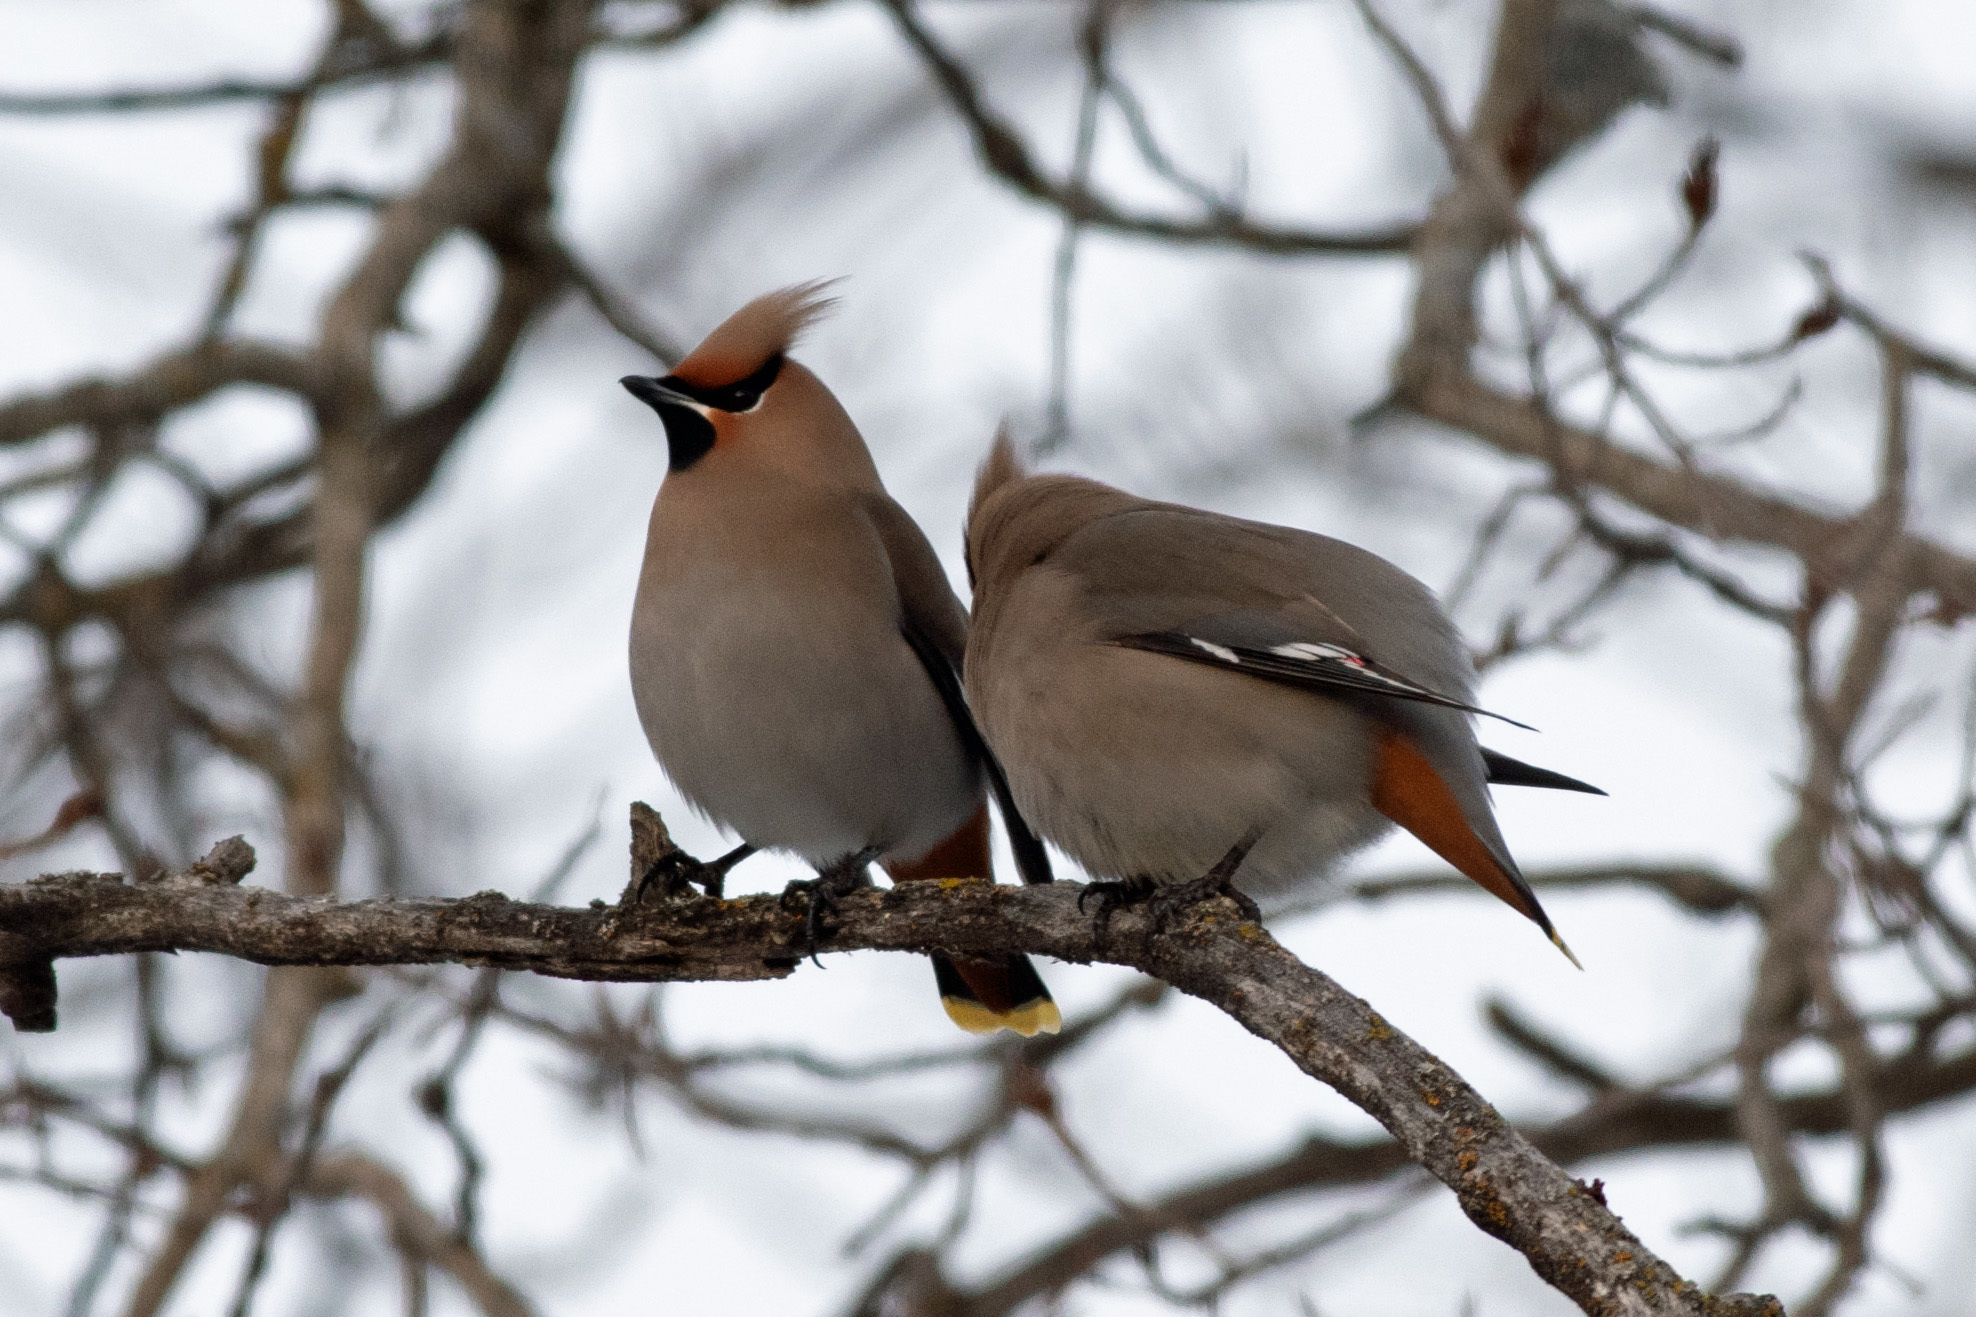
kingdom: Animalia
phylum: Chordata
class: Aves
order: Passeriformes
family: Bombycillidae
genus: Bombycilla
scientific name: Bombycilla garrulus
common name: Bohemian waxwing
